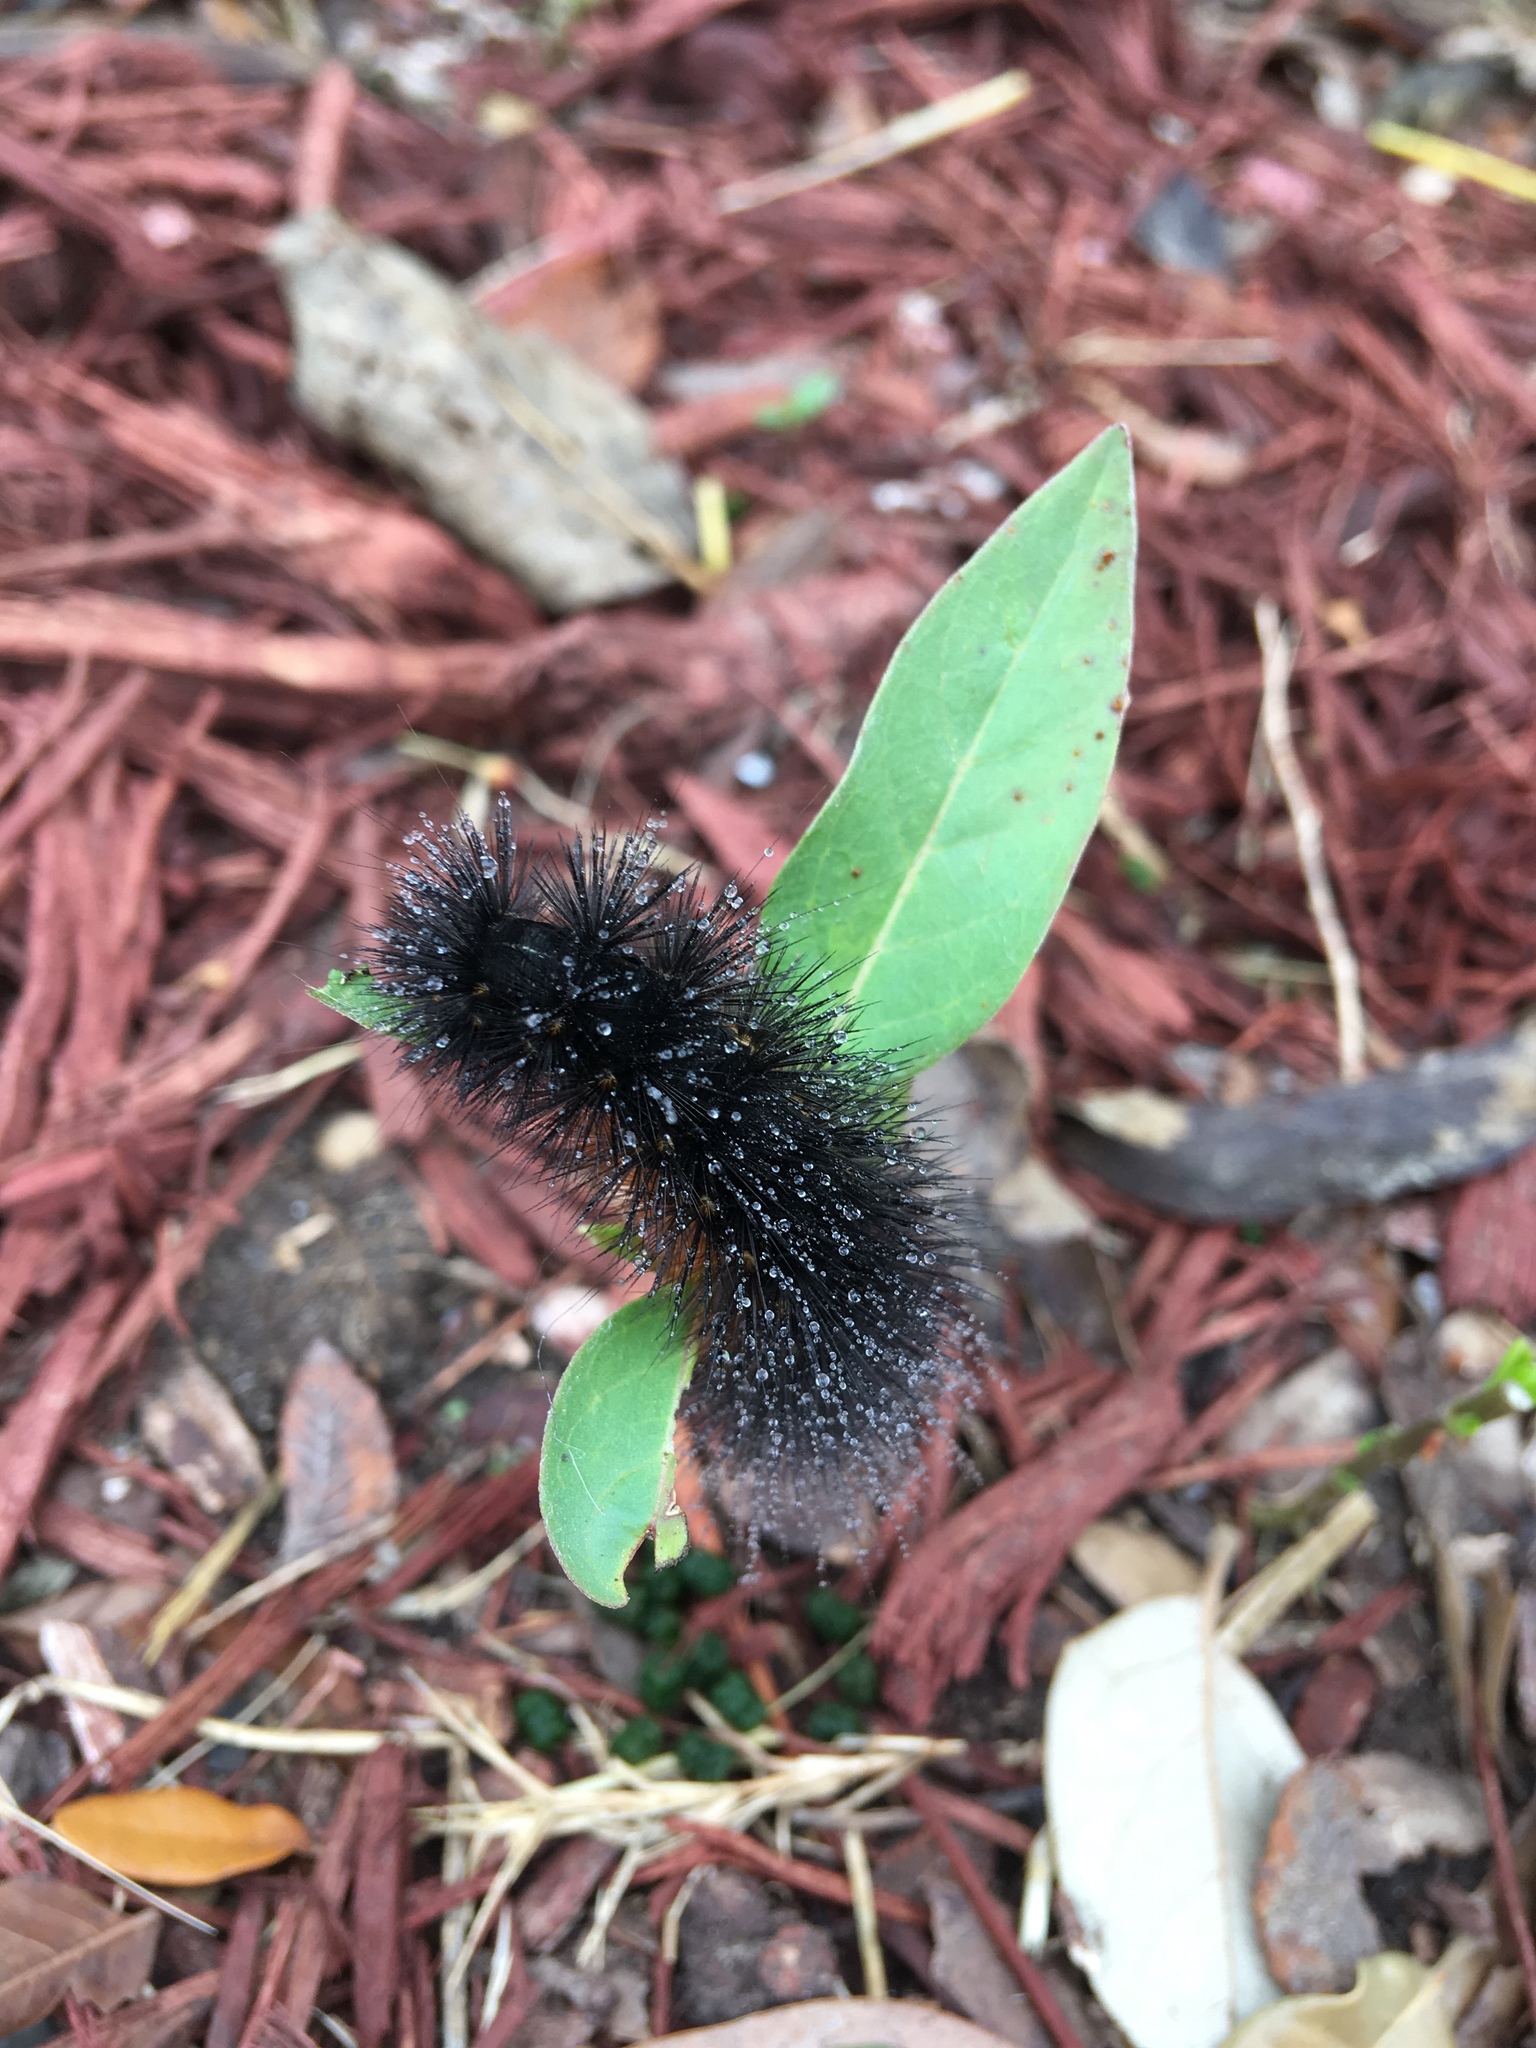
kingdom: Animalia
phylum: Arthropoda
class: Insecta
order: Lepidoptera
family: Erebidae
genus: Estigmene
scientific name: Estigmene acrea
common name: Salt marsh moth
